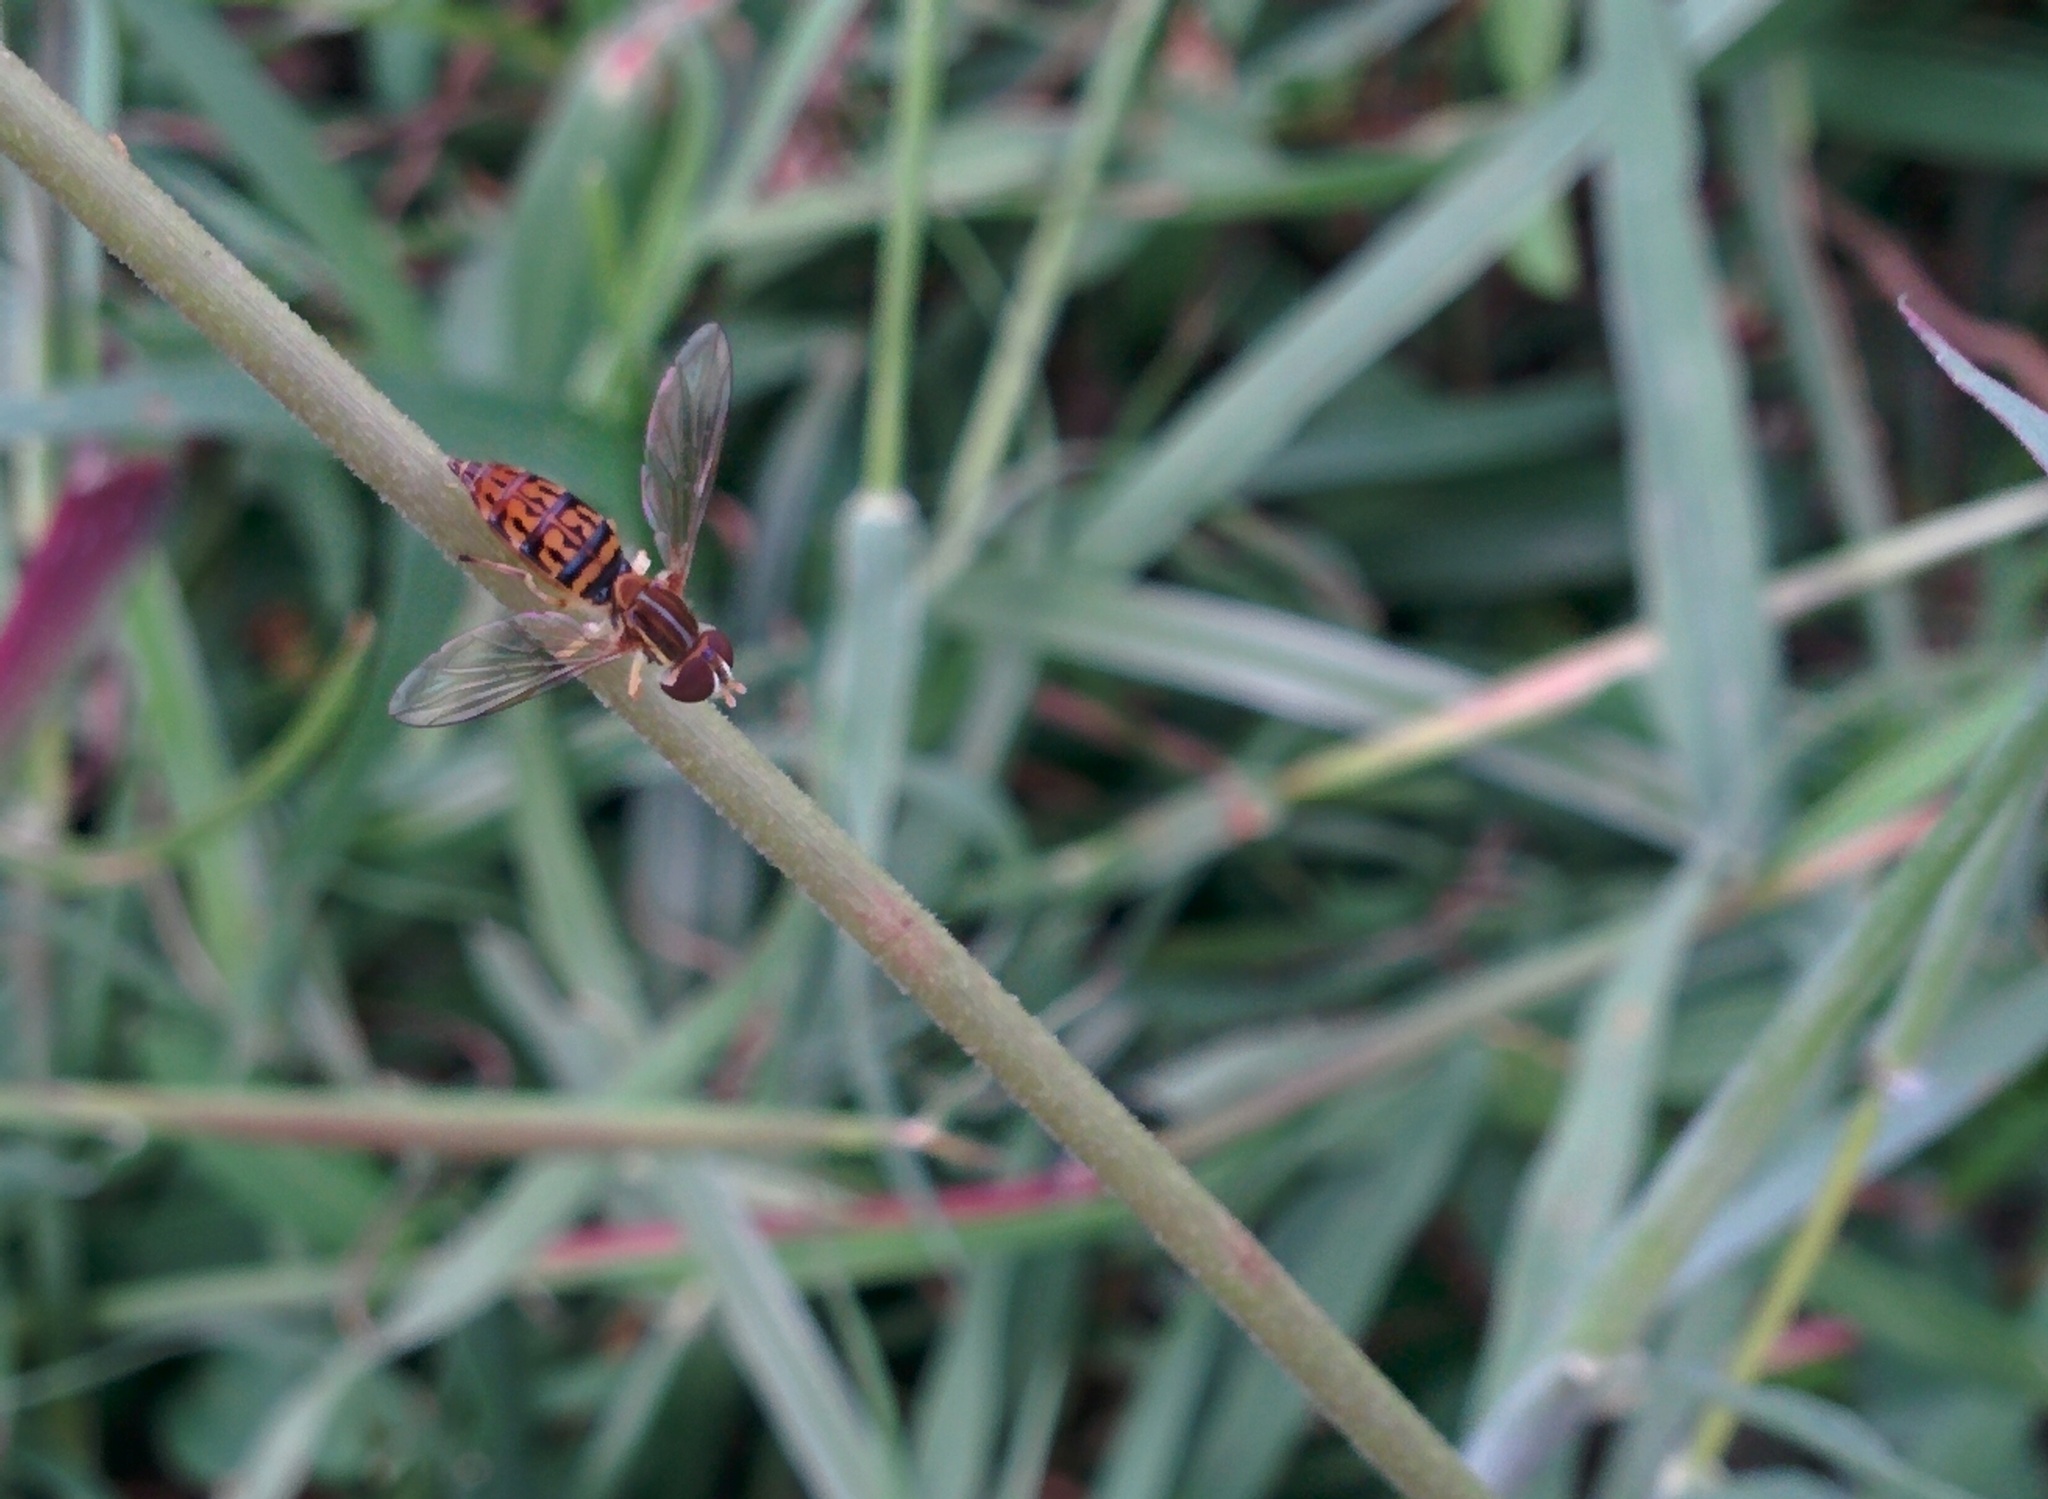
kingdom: Animalia
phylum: Arthropoda
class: Insecta
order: Diptera
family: Syrphidae
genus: Toxomerus
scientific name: Toxomerus lacrymosus
